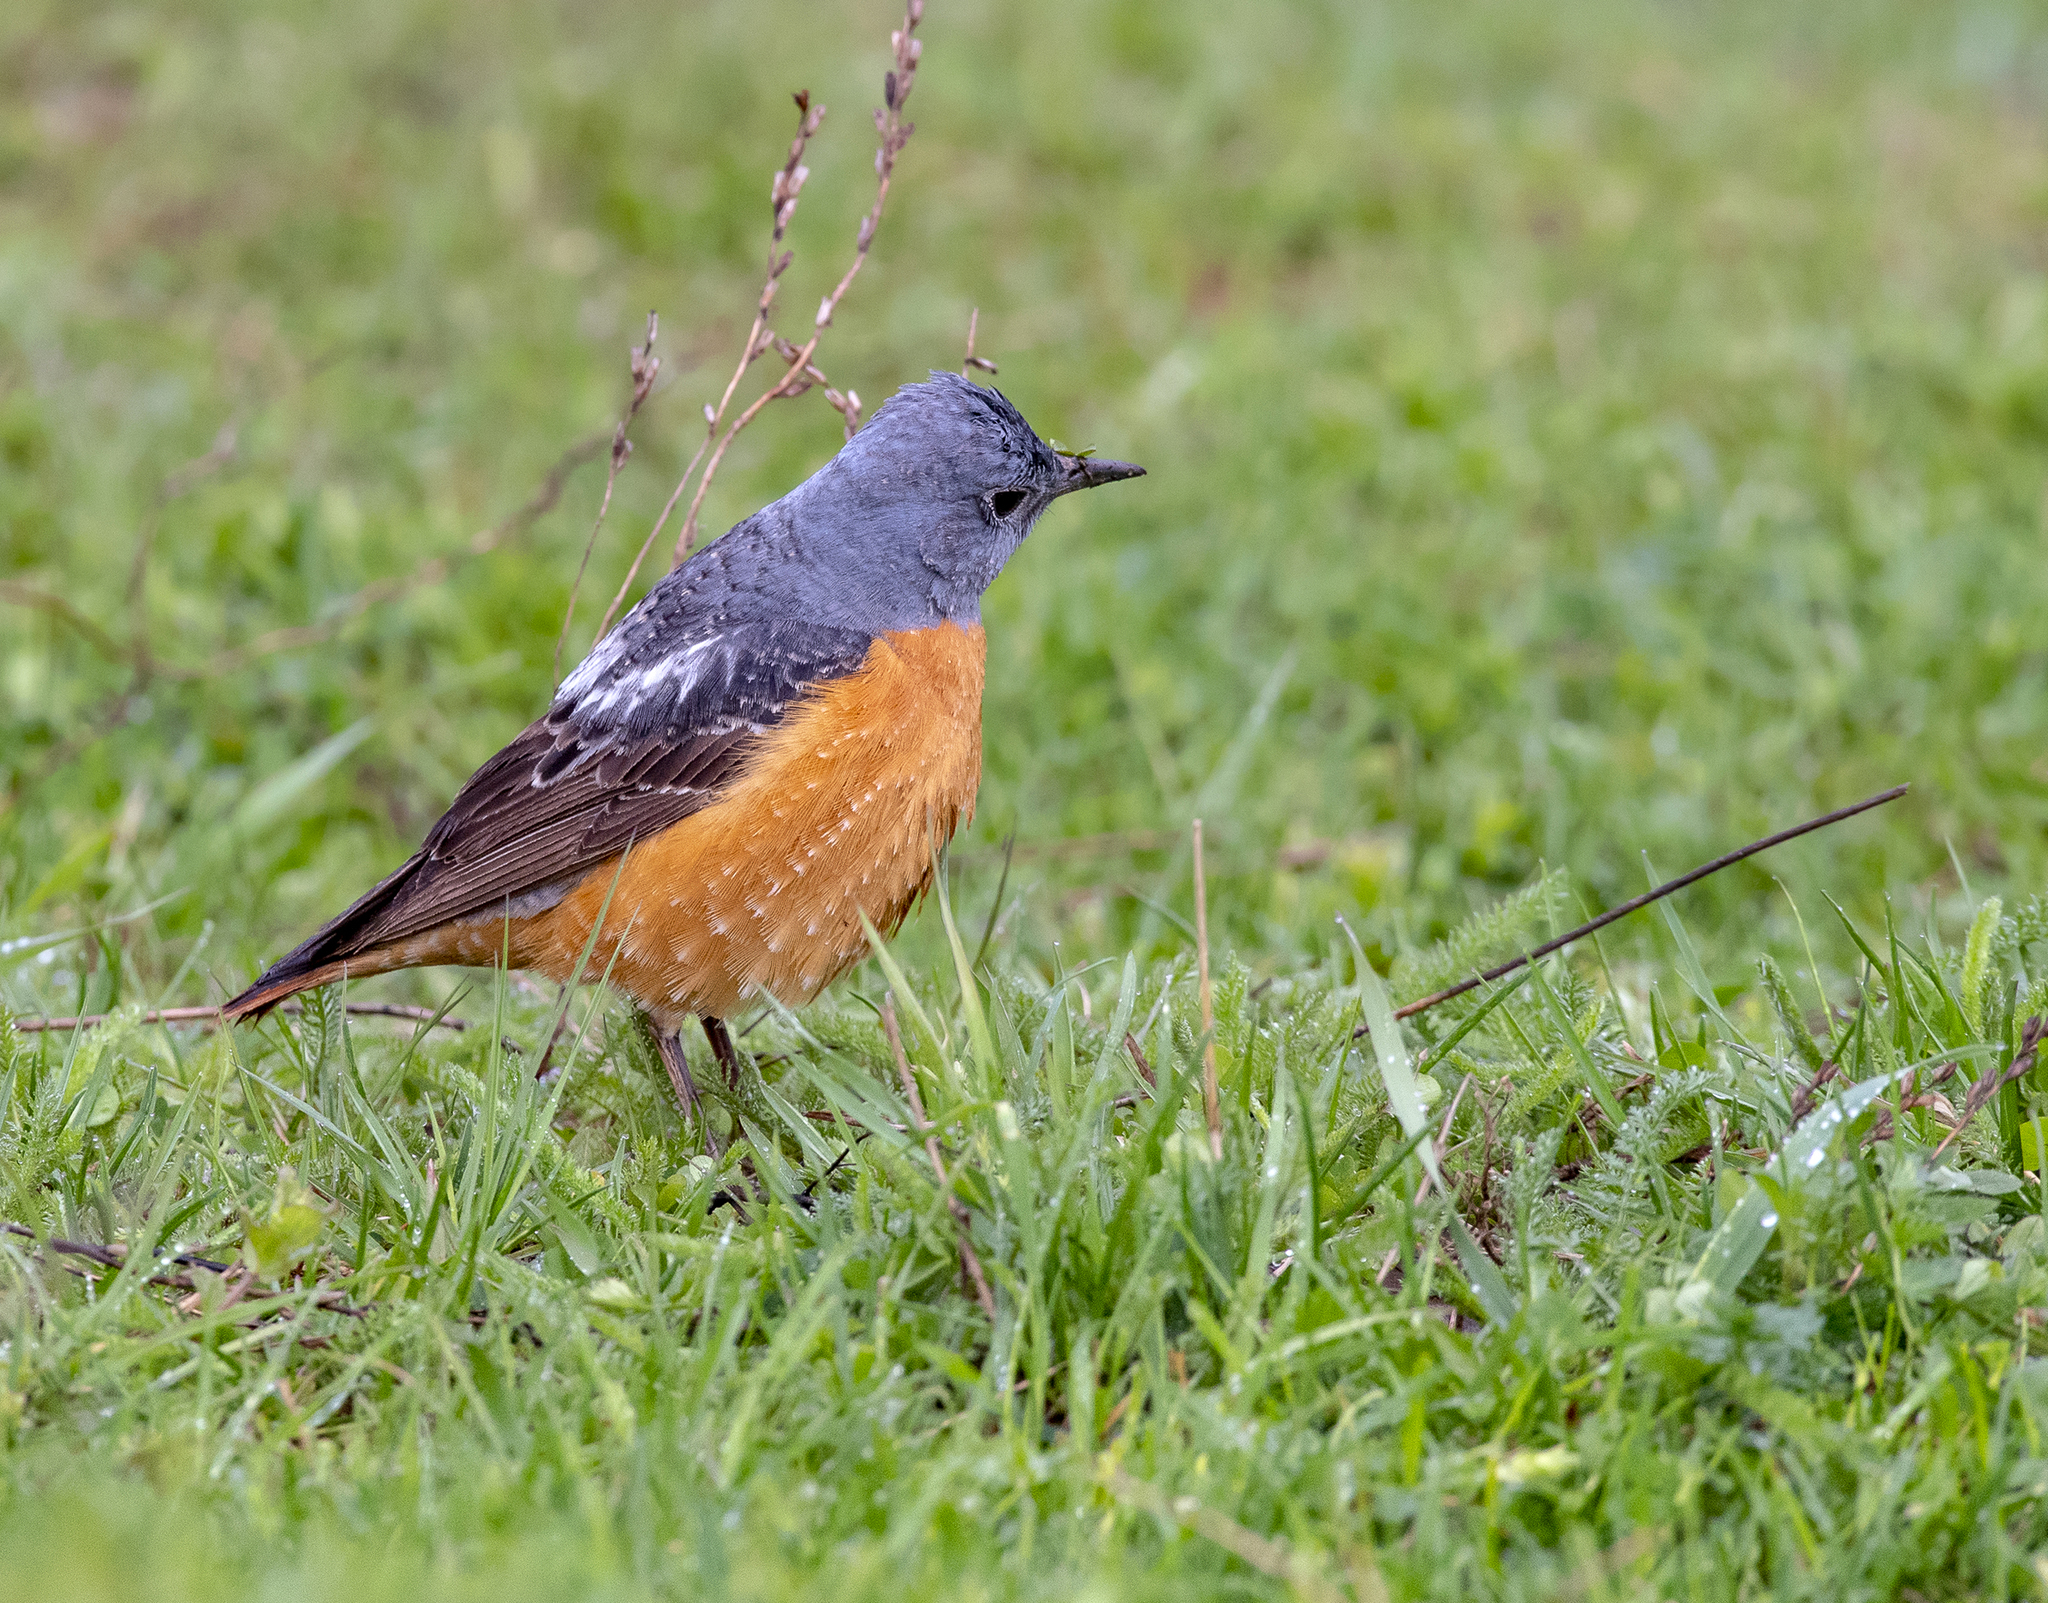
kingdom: Animalia
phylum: Chordata
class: Aves
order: Passeriformes
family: Muscicapidae
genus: Monticola
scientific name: Monticola saxatilis
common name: Rufous-tailed rock thrush
